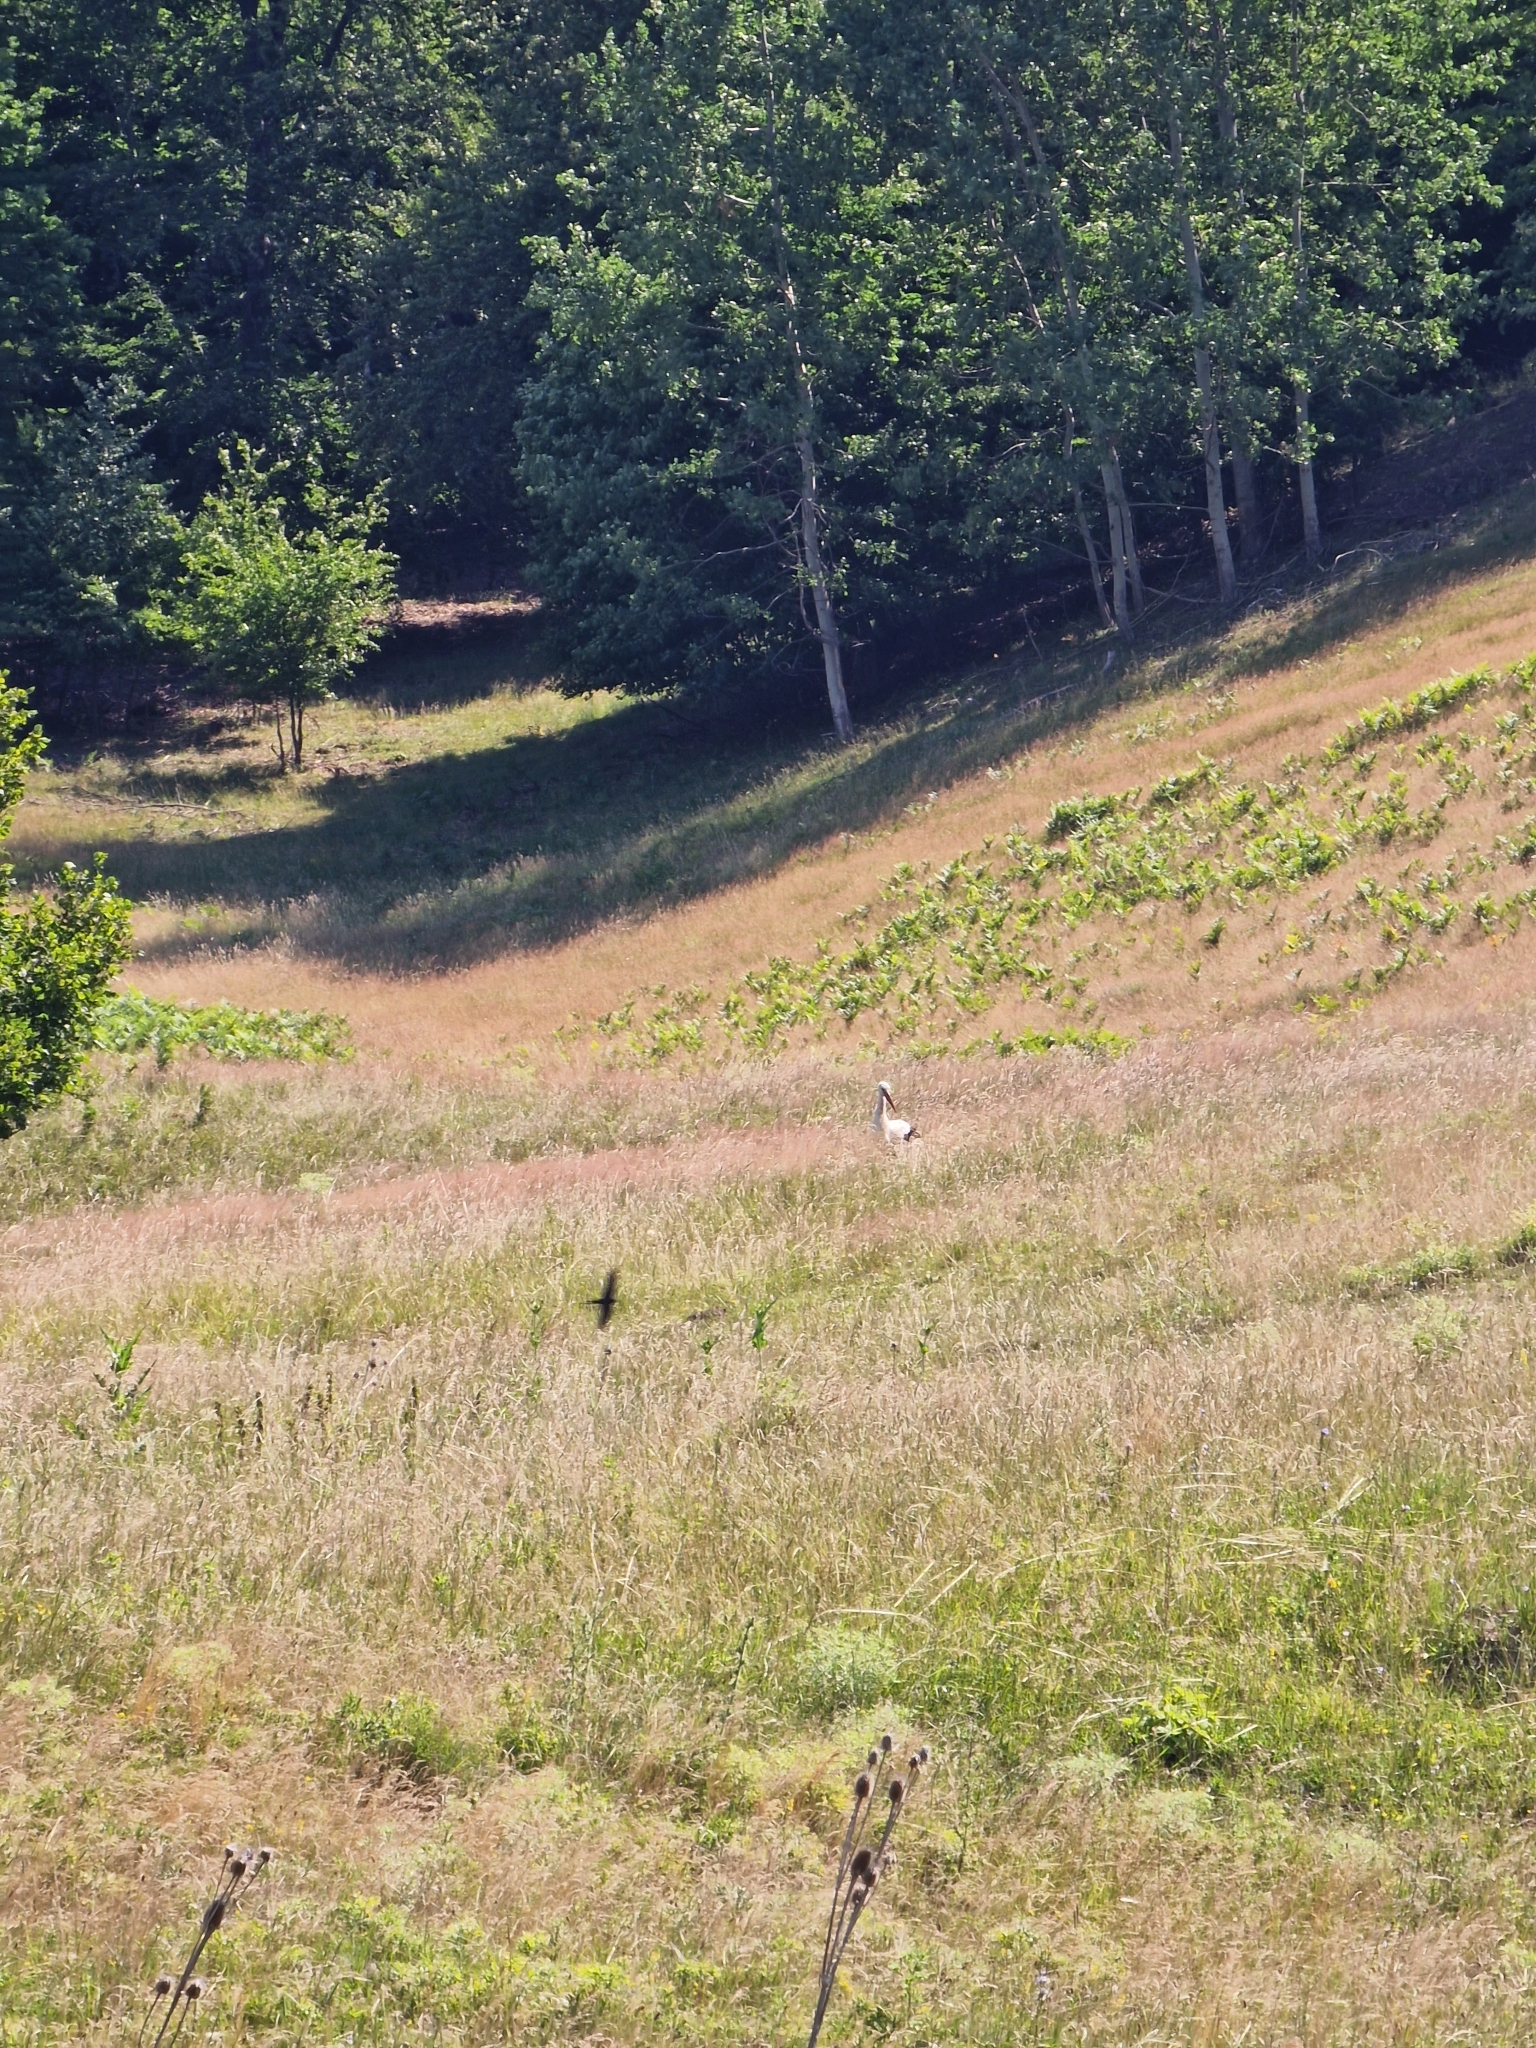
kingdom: Animalia
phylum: Chordata
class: Aves
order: Ciconiiformes
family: Ciconiidae
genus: Ciconia
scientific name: Ciconia ciconia
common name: White stork
